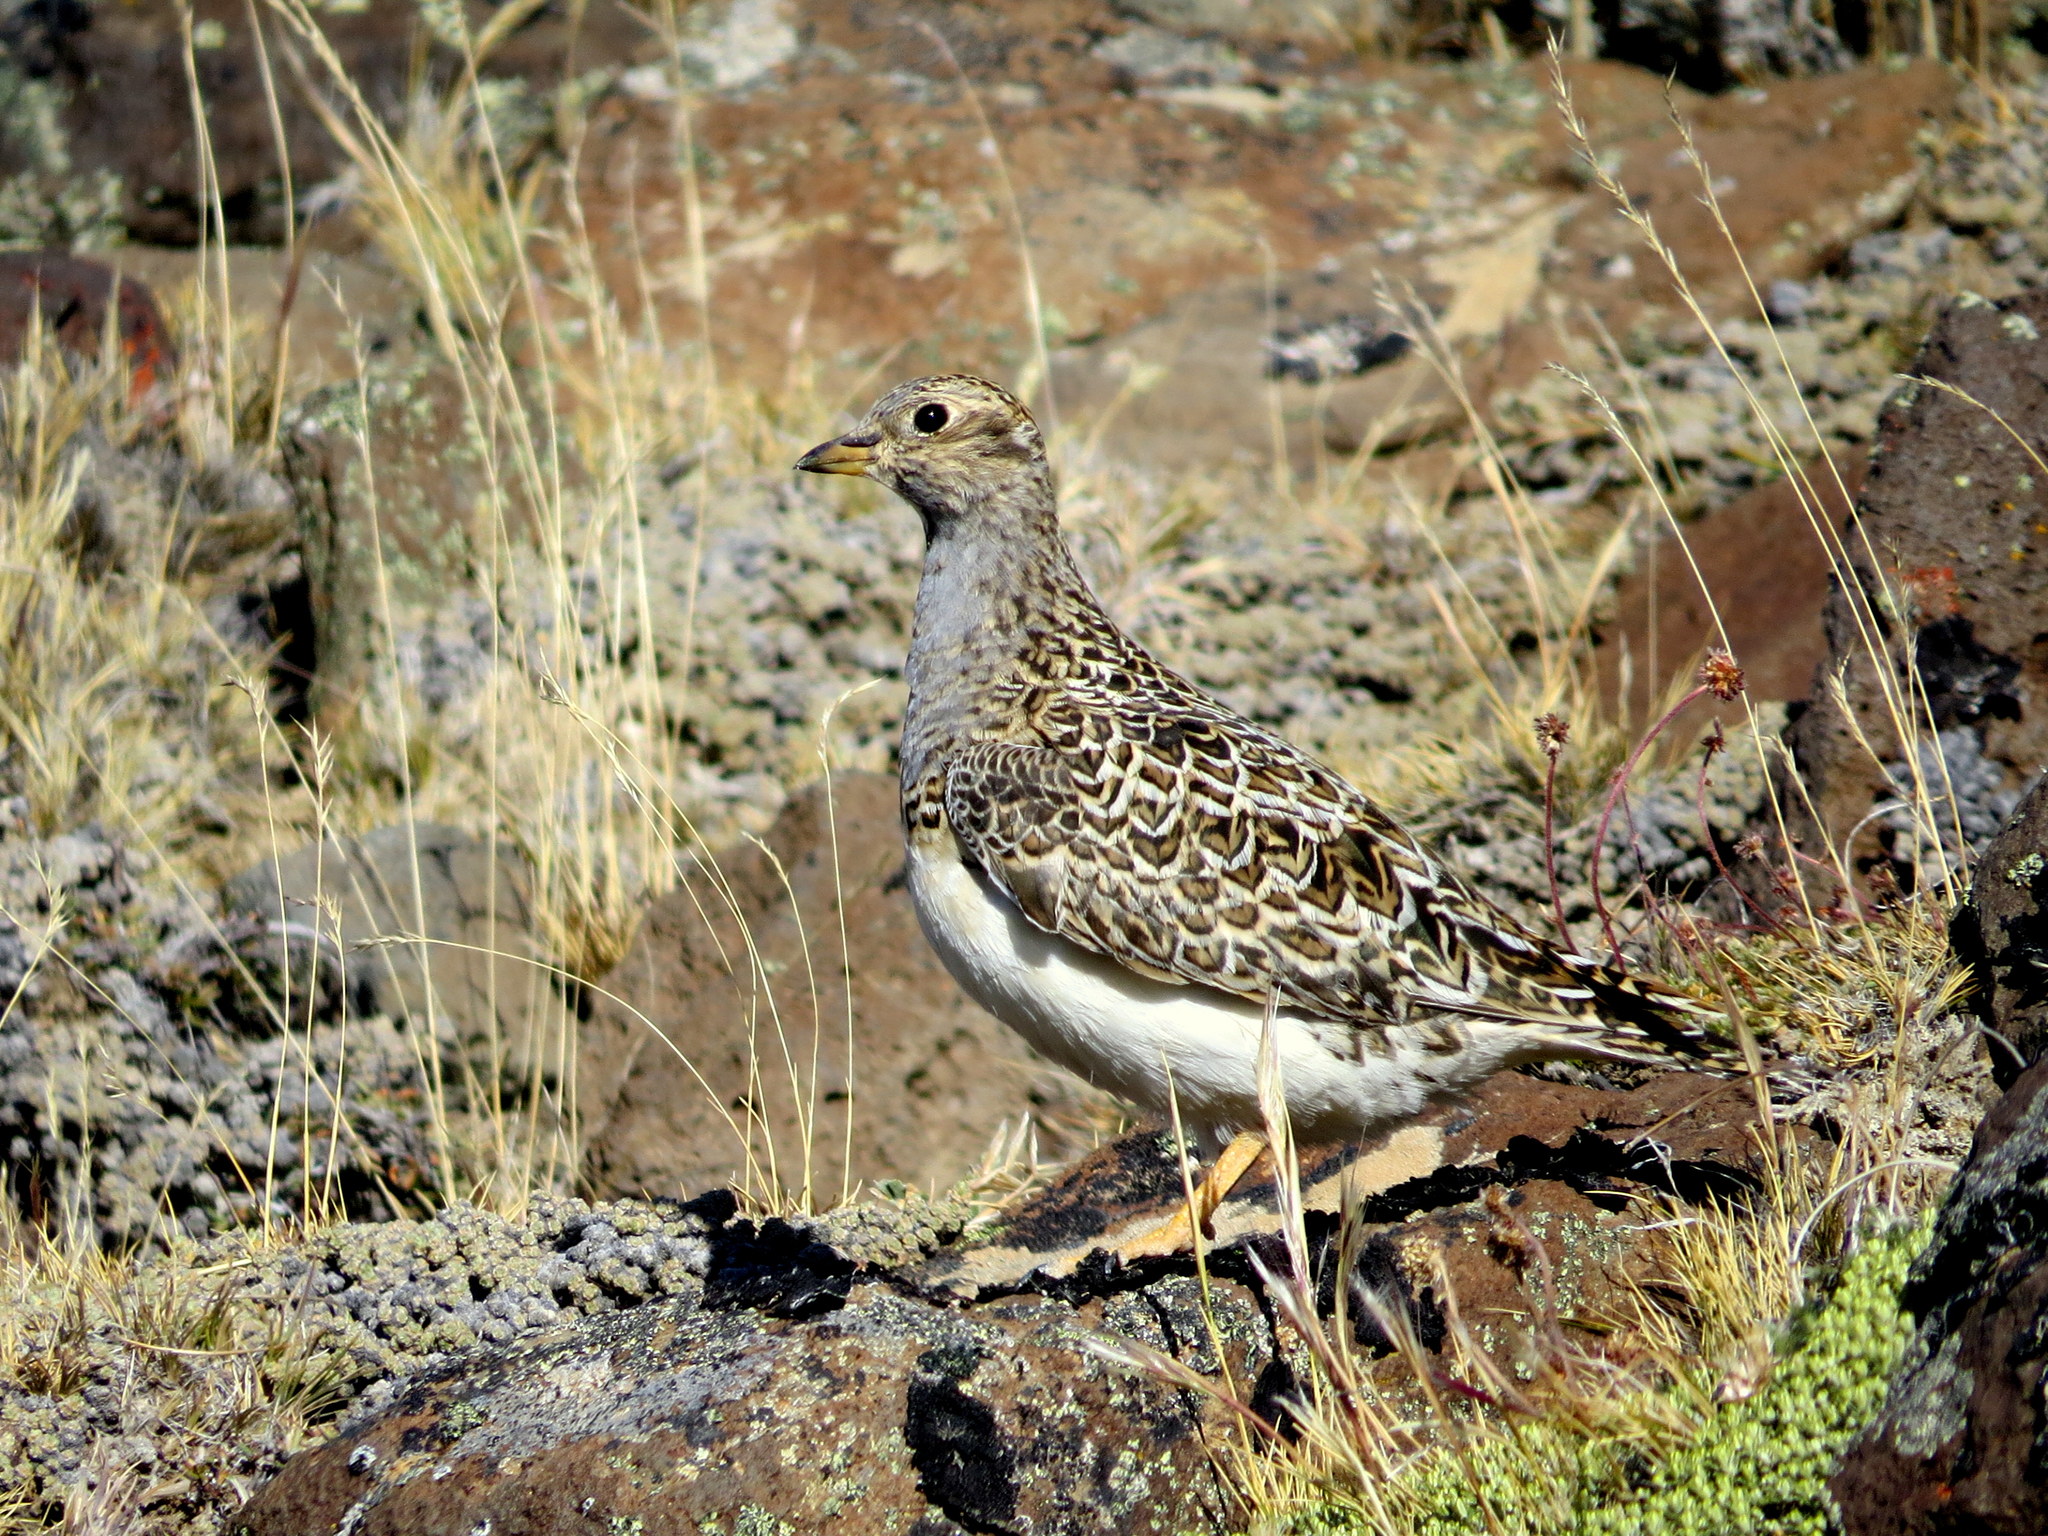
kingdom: Animalia
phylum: Chordata
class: Aves
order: Charadriiformes
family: Thinocoridae
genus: Thinocorus
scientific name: Thinocorus orbignyianus
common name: Grey-breasted seedsnipe
